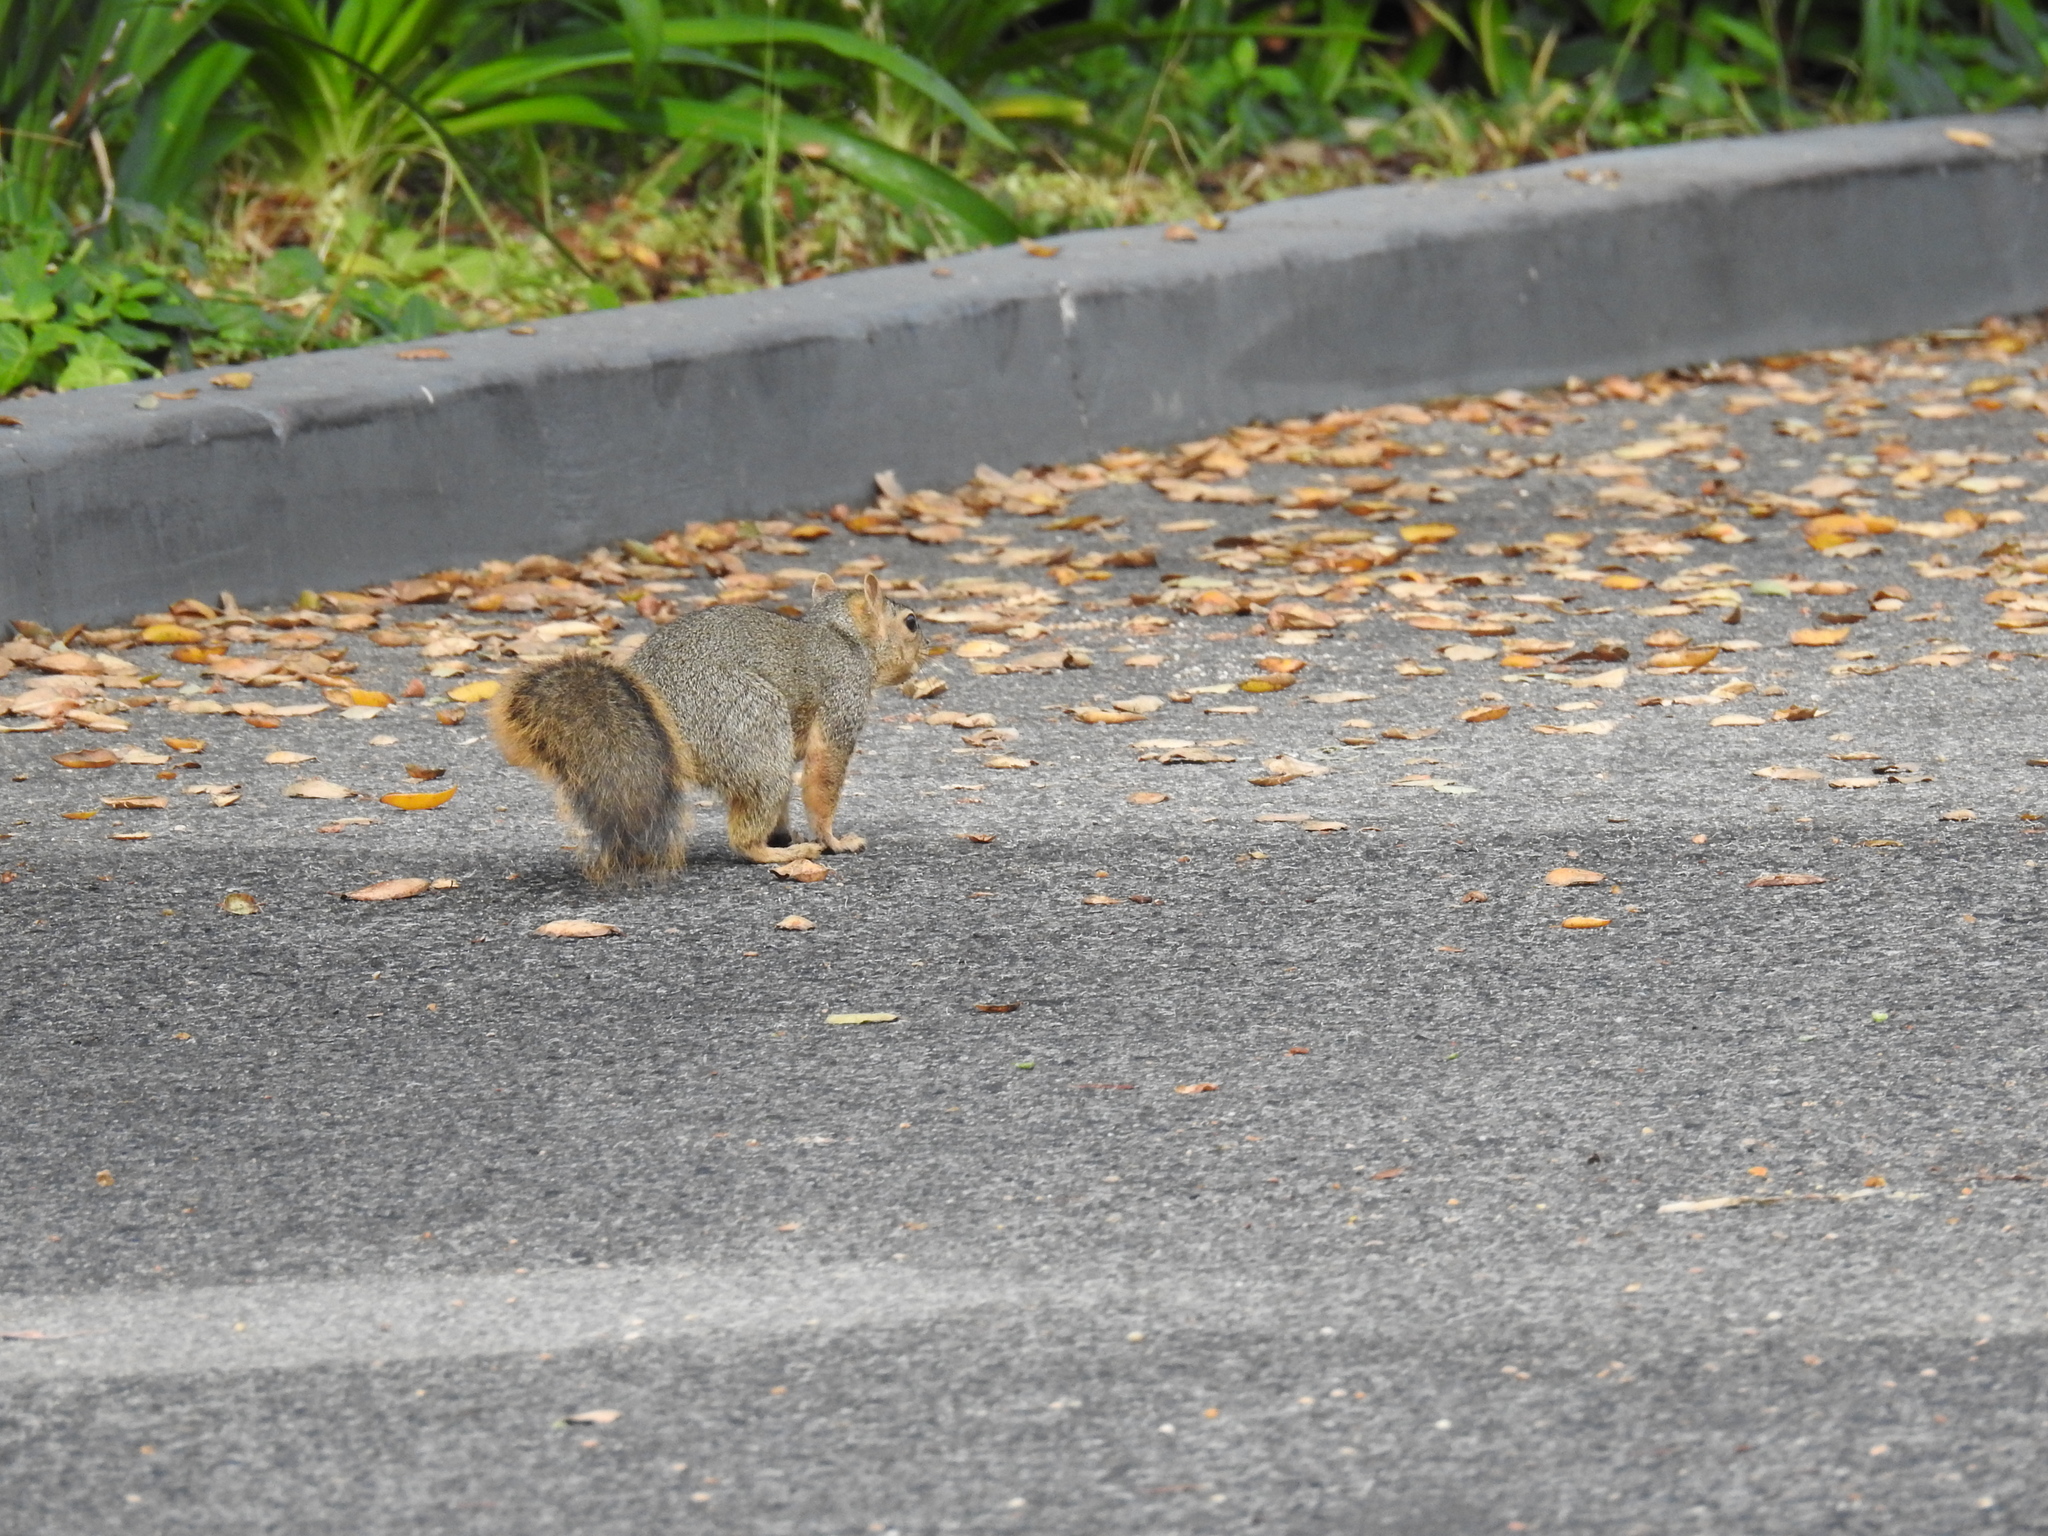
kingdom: Animalia
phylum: Chordata
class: Mammalia
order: Rodentia
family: Sciuridae
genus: Sciurus
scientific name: Sciurus niger
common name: Fox squirrel
